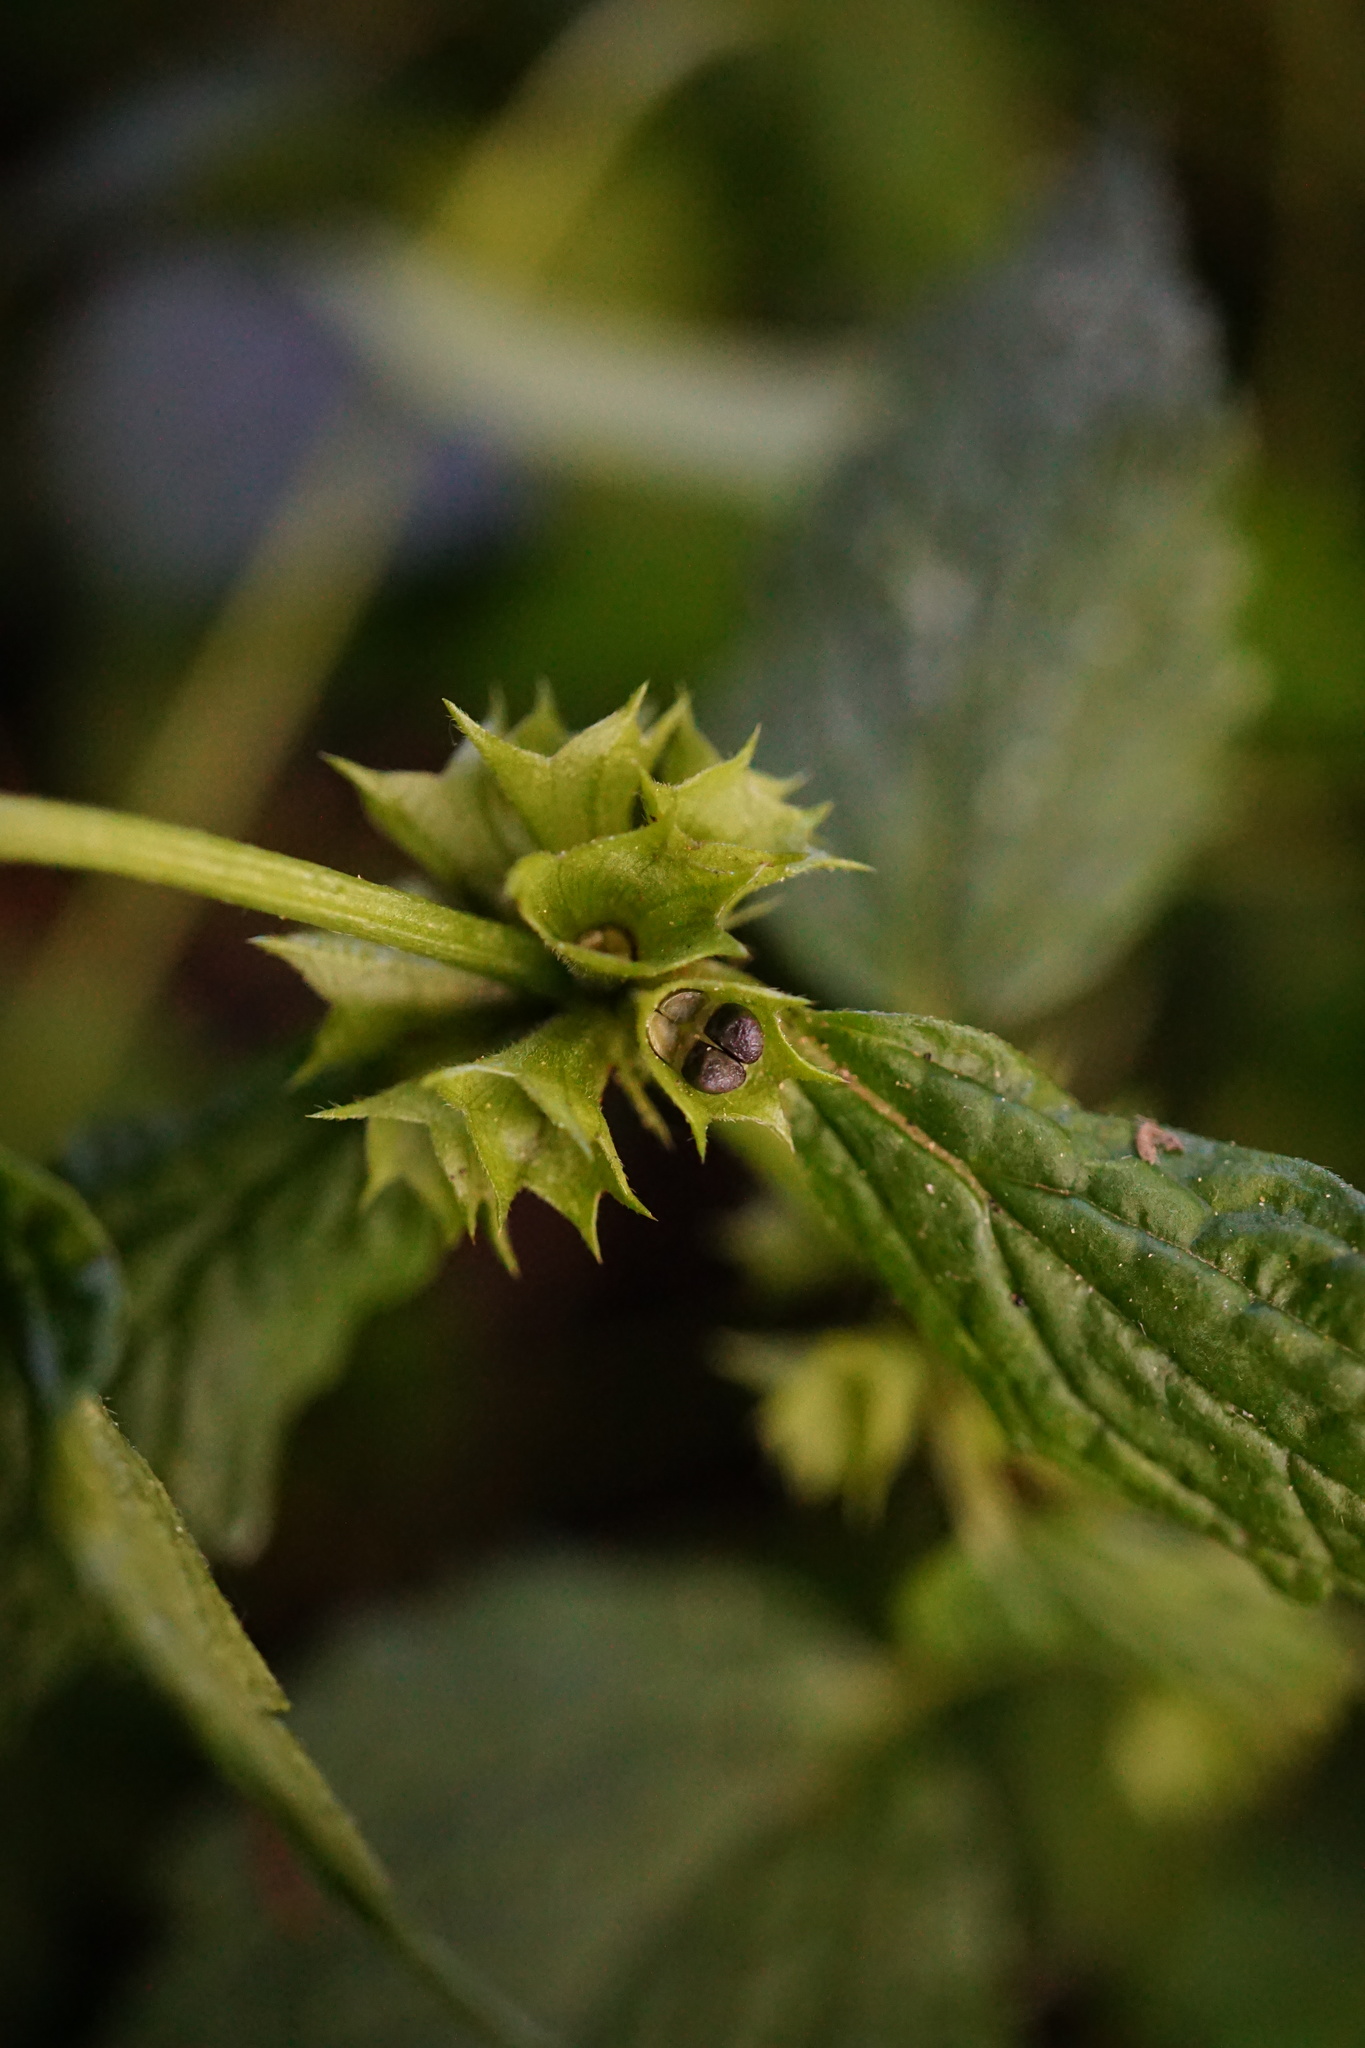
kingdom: Plantae
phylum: Tracheophyta
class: Magnoliopsida
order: Lamiales
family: Lamiaceae
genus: Lamium
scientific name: Lamium galeobdolon
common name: Yellow archangel
